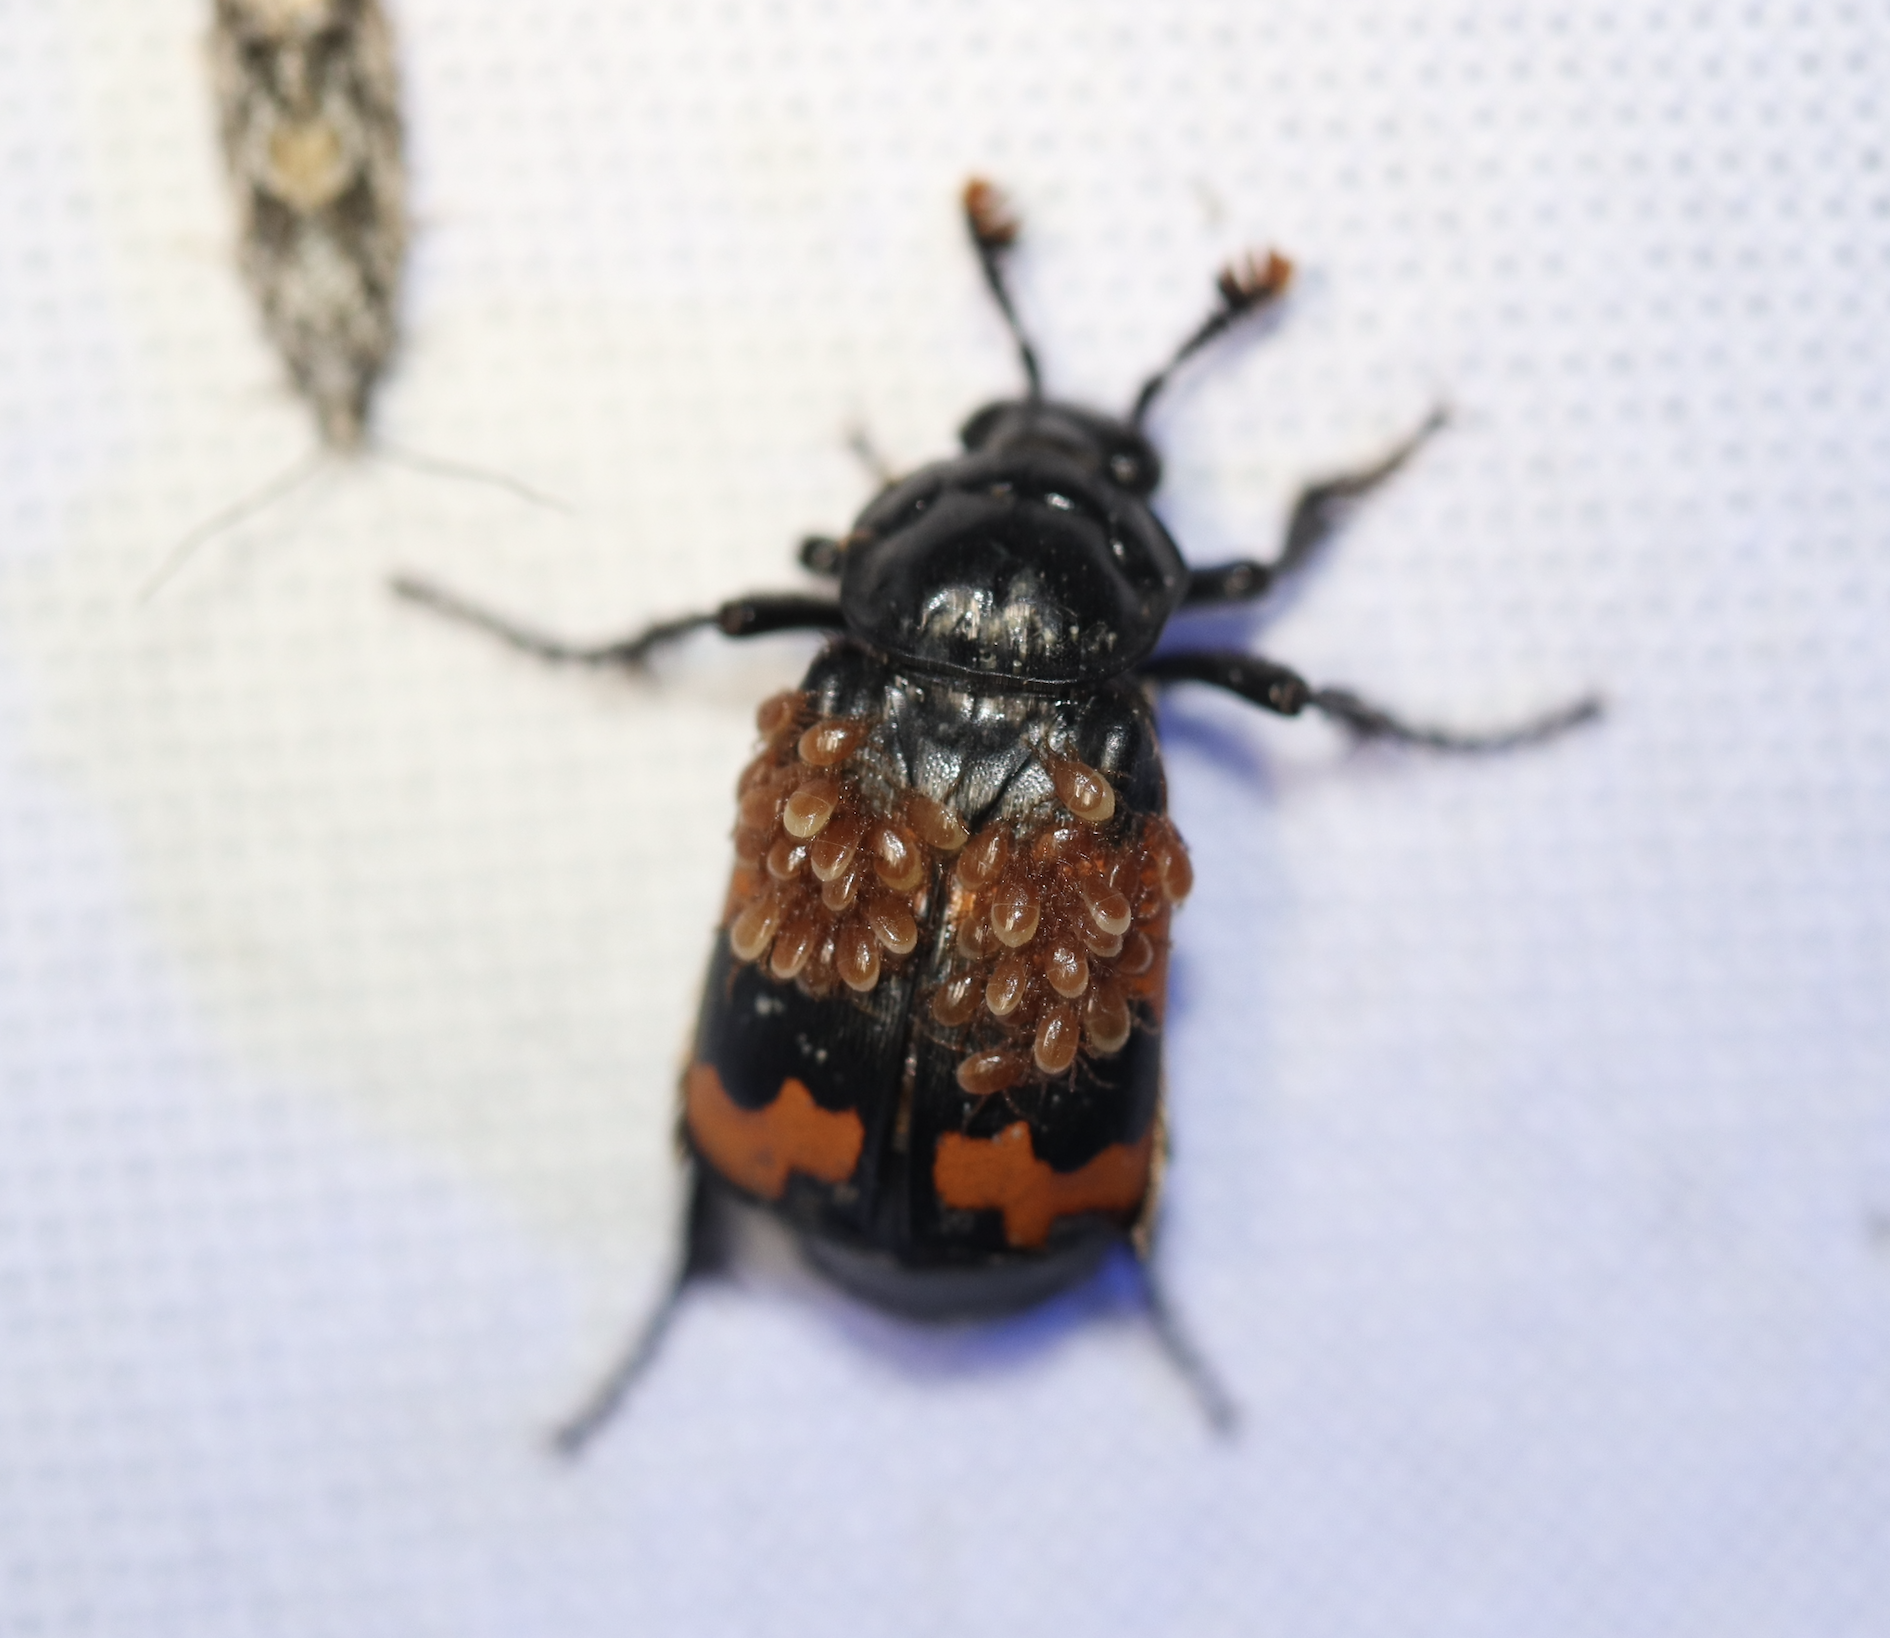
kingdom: Animalia
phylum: Arthropoda
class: Insecta
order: Coleoptera
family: Staphylinidae
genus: Nicrophorus
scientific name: Nicrophorus investigator
